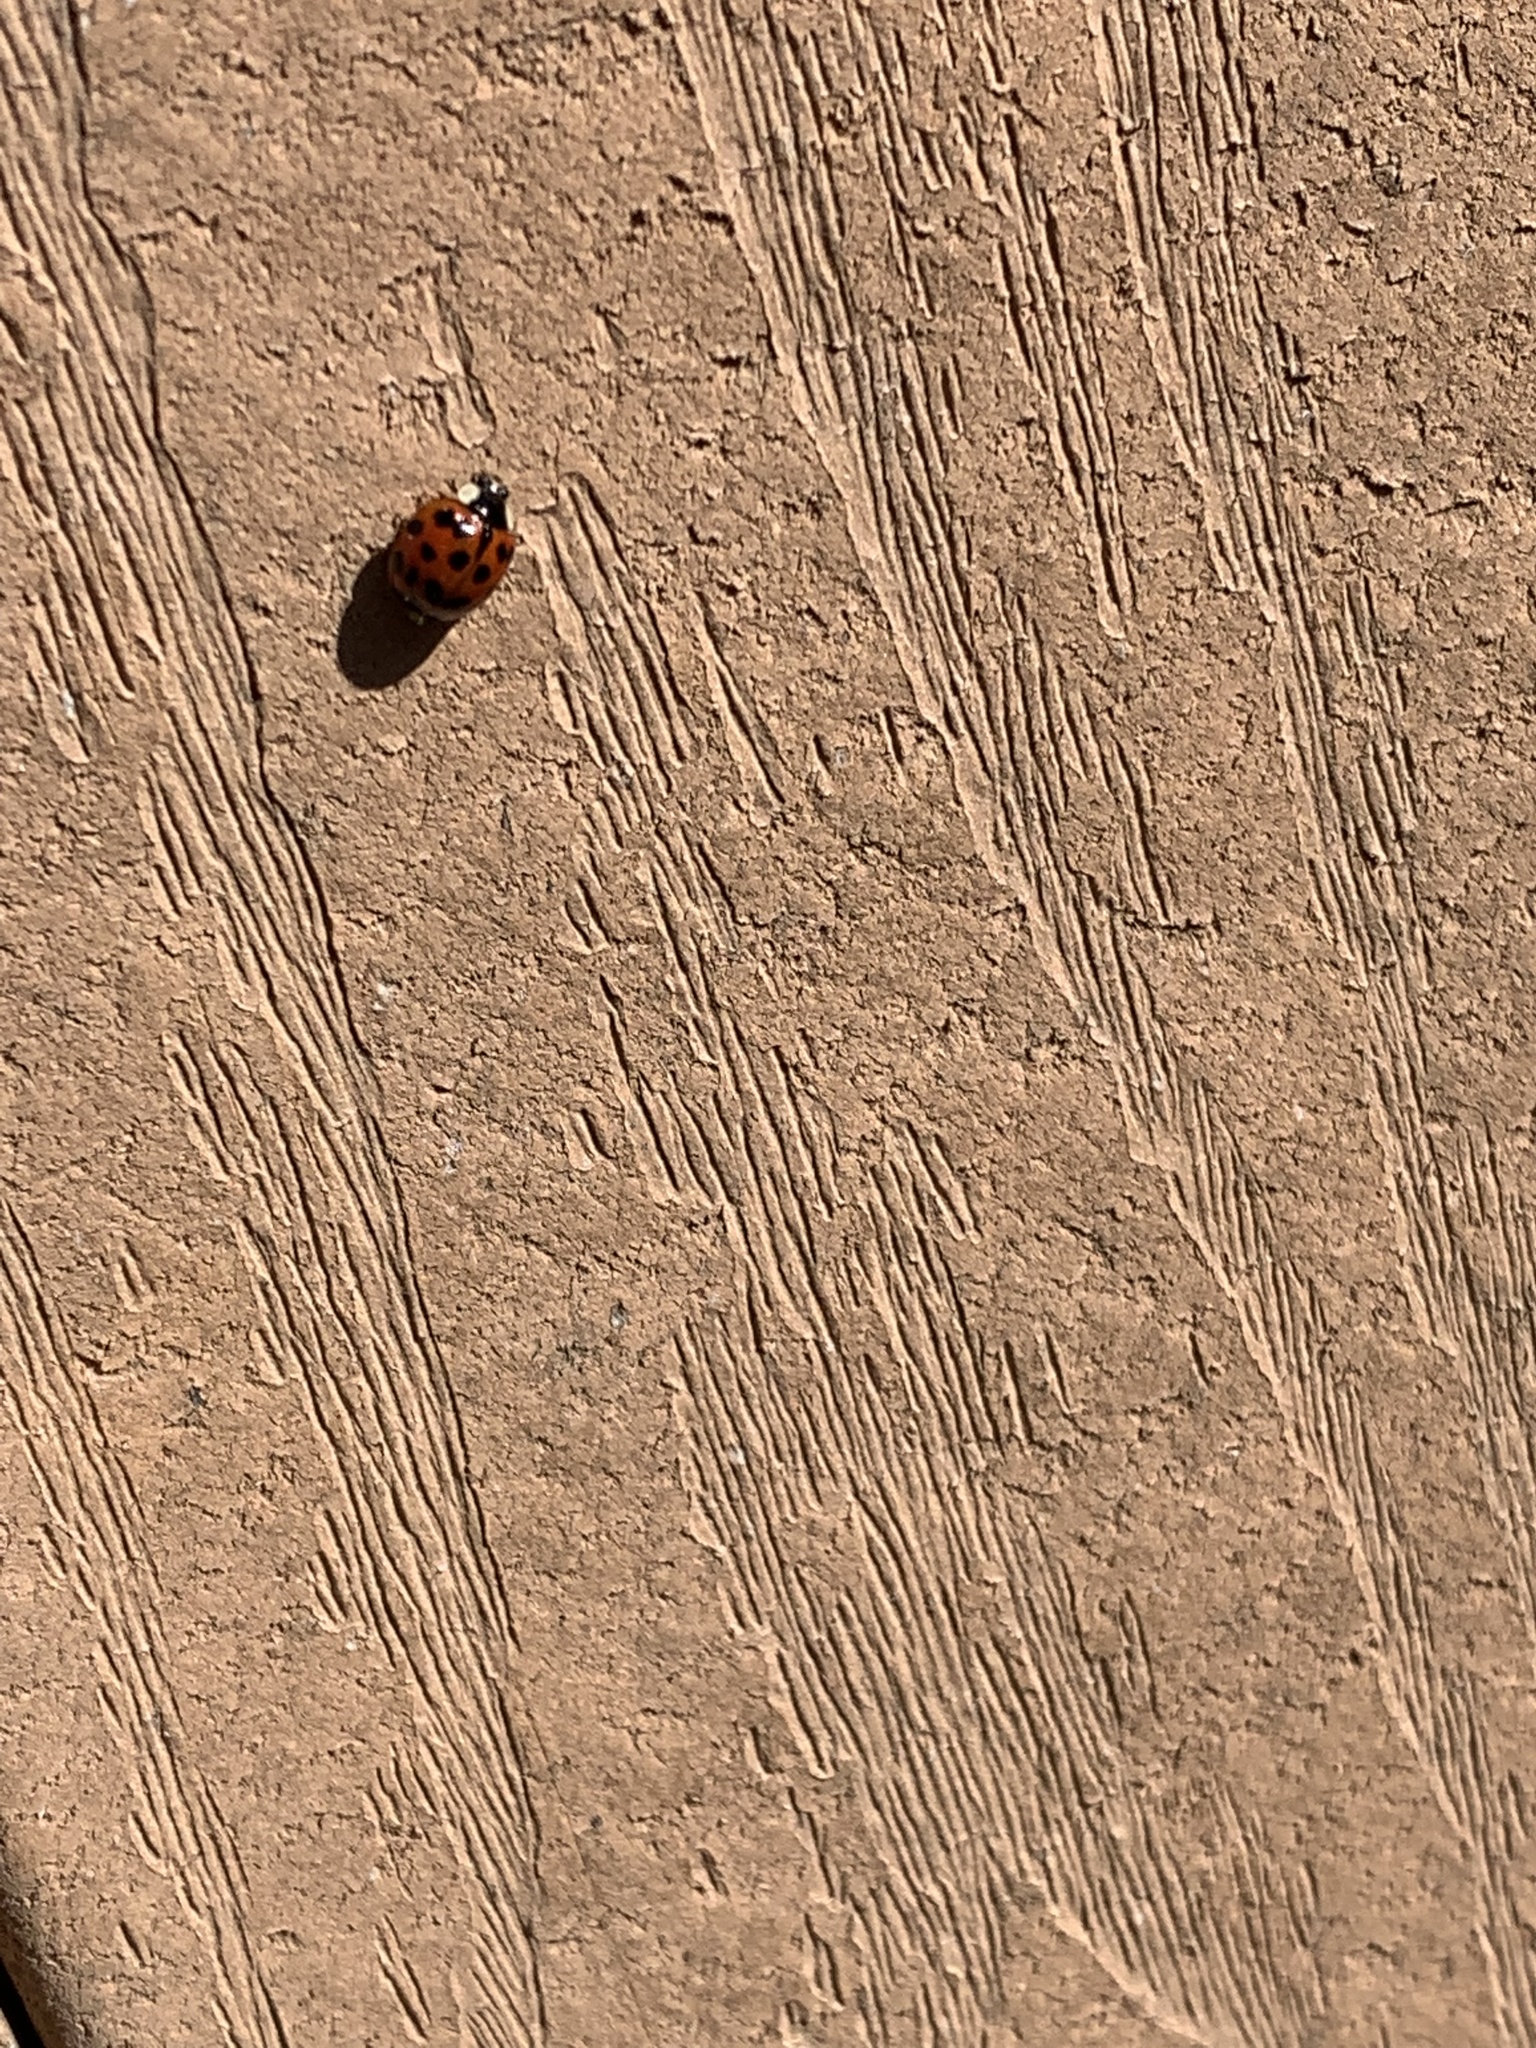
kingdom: Animalia
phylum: Arthropoda
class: Insecta
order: Coleoptera
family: Coccinellidae
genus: Harmonia
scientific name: Harmonia axyridis
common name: Harlequin ladybird
